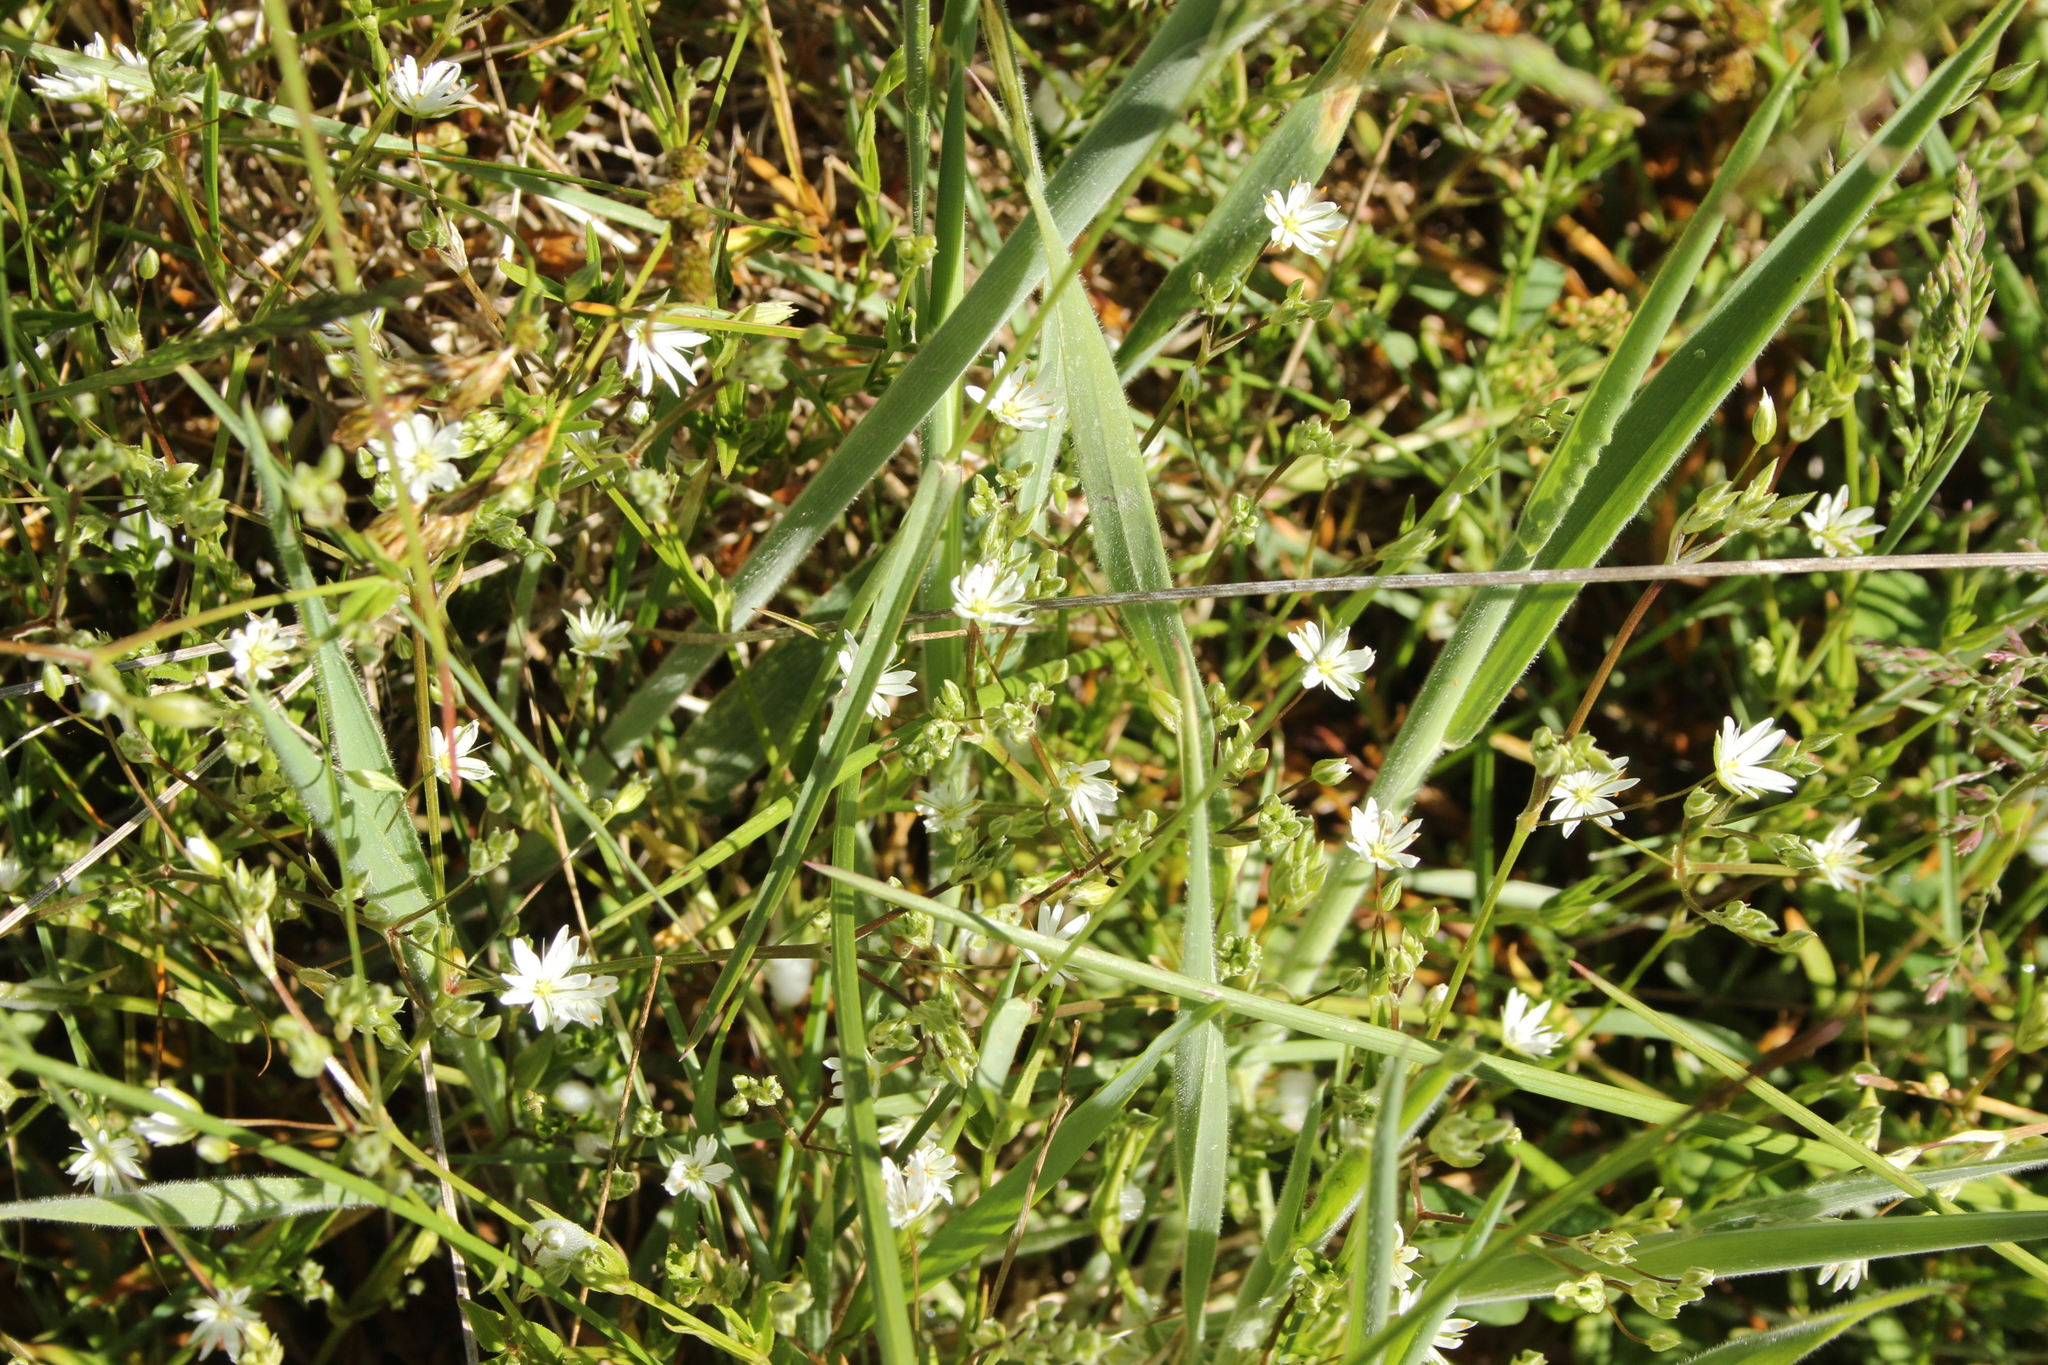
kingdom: Plantae
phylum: Tracheophyta
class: Magnoliopsida
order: Caryophyllales
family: Caryophyllaceae
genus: Stellaria
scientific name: Stellaria graminea
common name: Grass-like starwort
